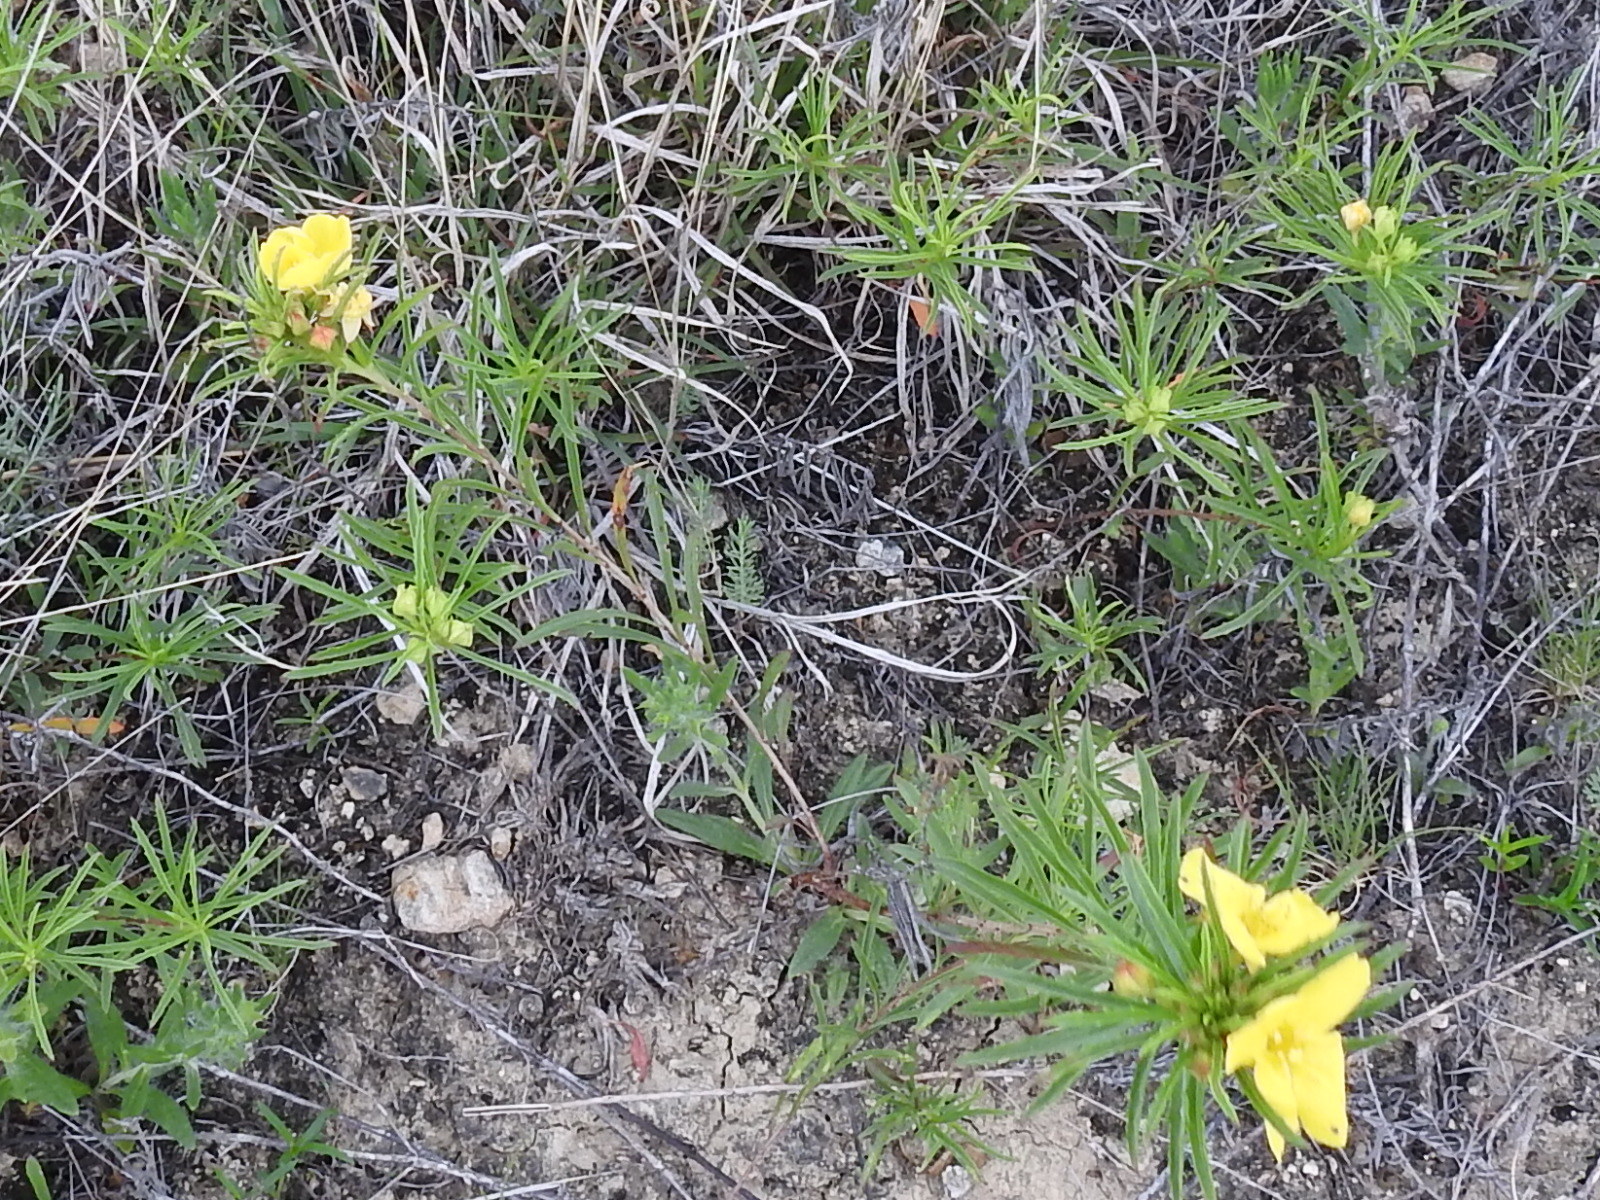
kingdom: Plantae
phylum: Tracheophyta
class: Magnoliopsida
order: Myrtales
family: Onagraceae
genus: Oenothera
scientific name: Oenothera
